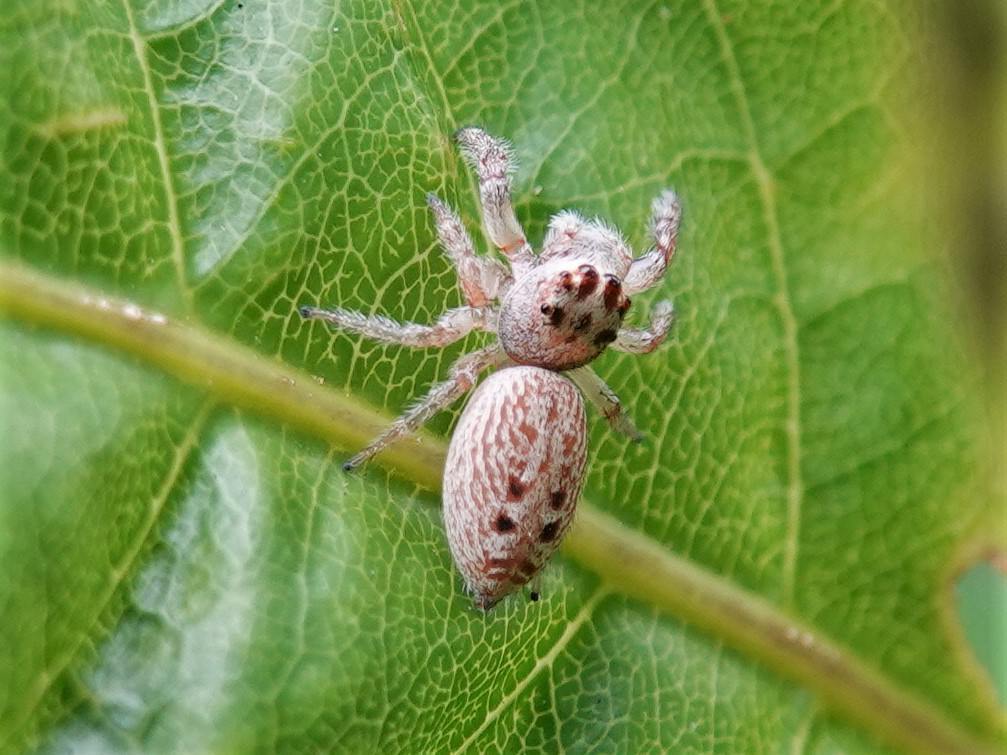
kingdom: Animalia
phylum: Arthropoda
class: Arachnida
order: Araneae
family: Salticidae
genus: Opisthoncus
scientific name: Opisthoncus polyphemus
